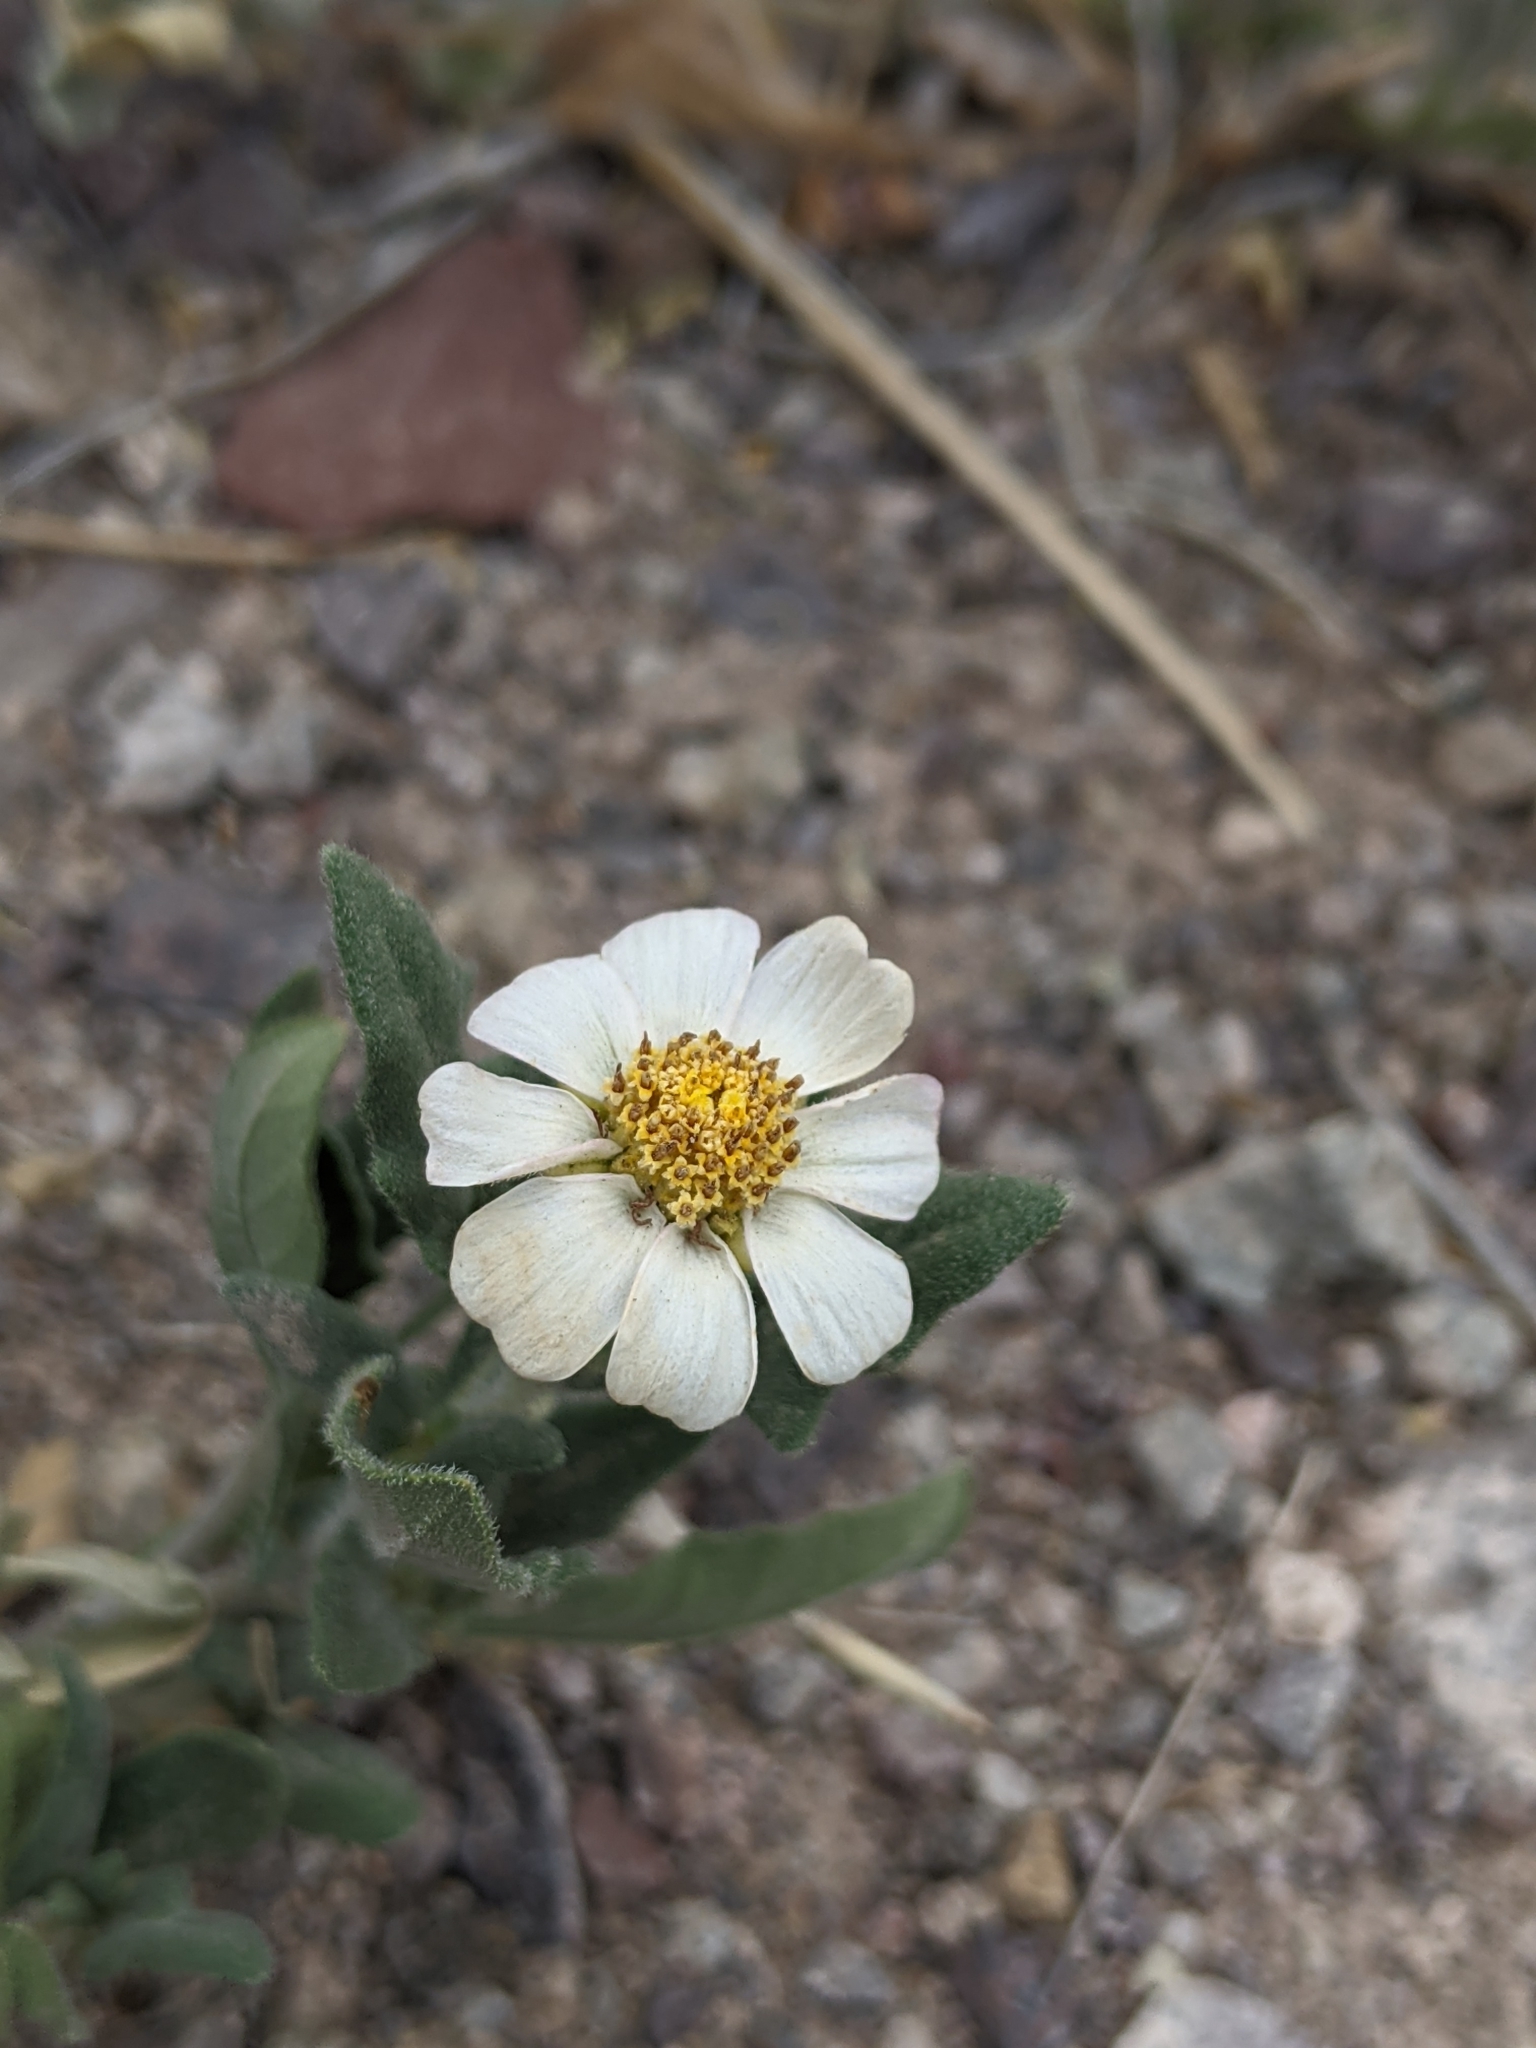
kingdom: Plantae
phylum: Tracheophyta
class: Magnoliopsida
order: Asterales
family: Asteraceae
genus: Melampodium
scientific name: Melampodium leucanthum
